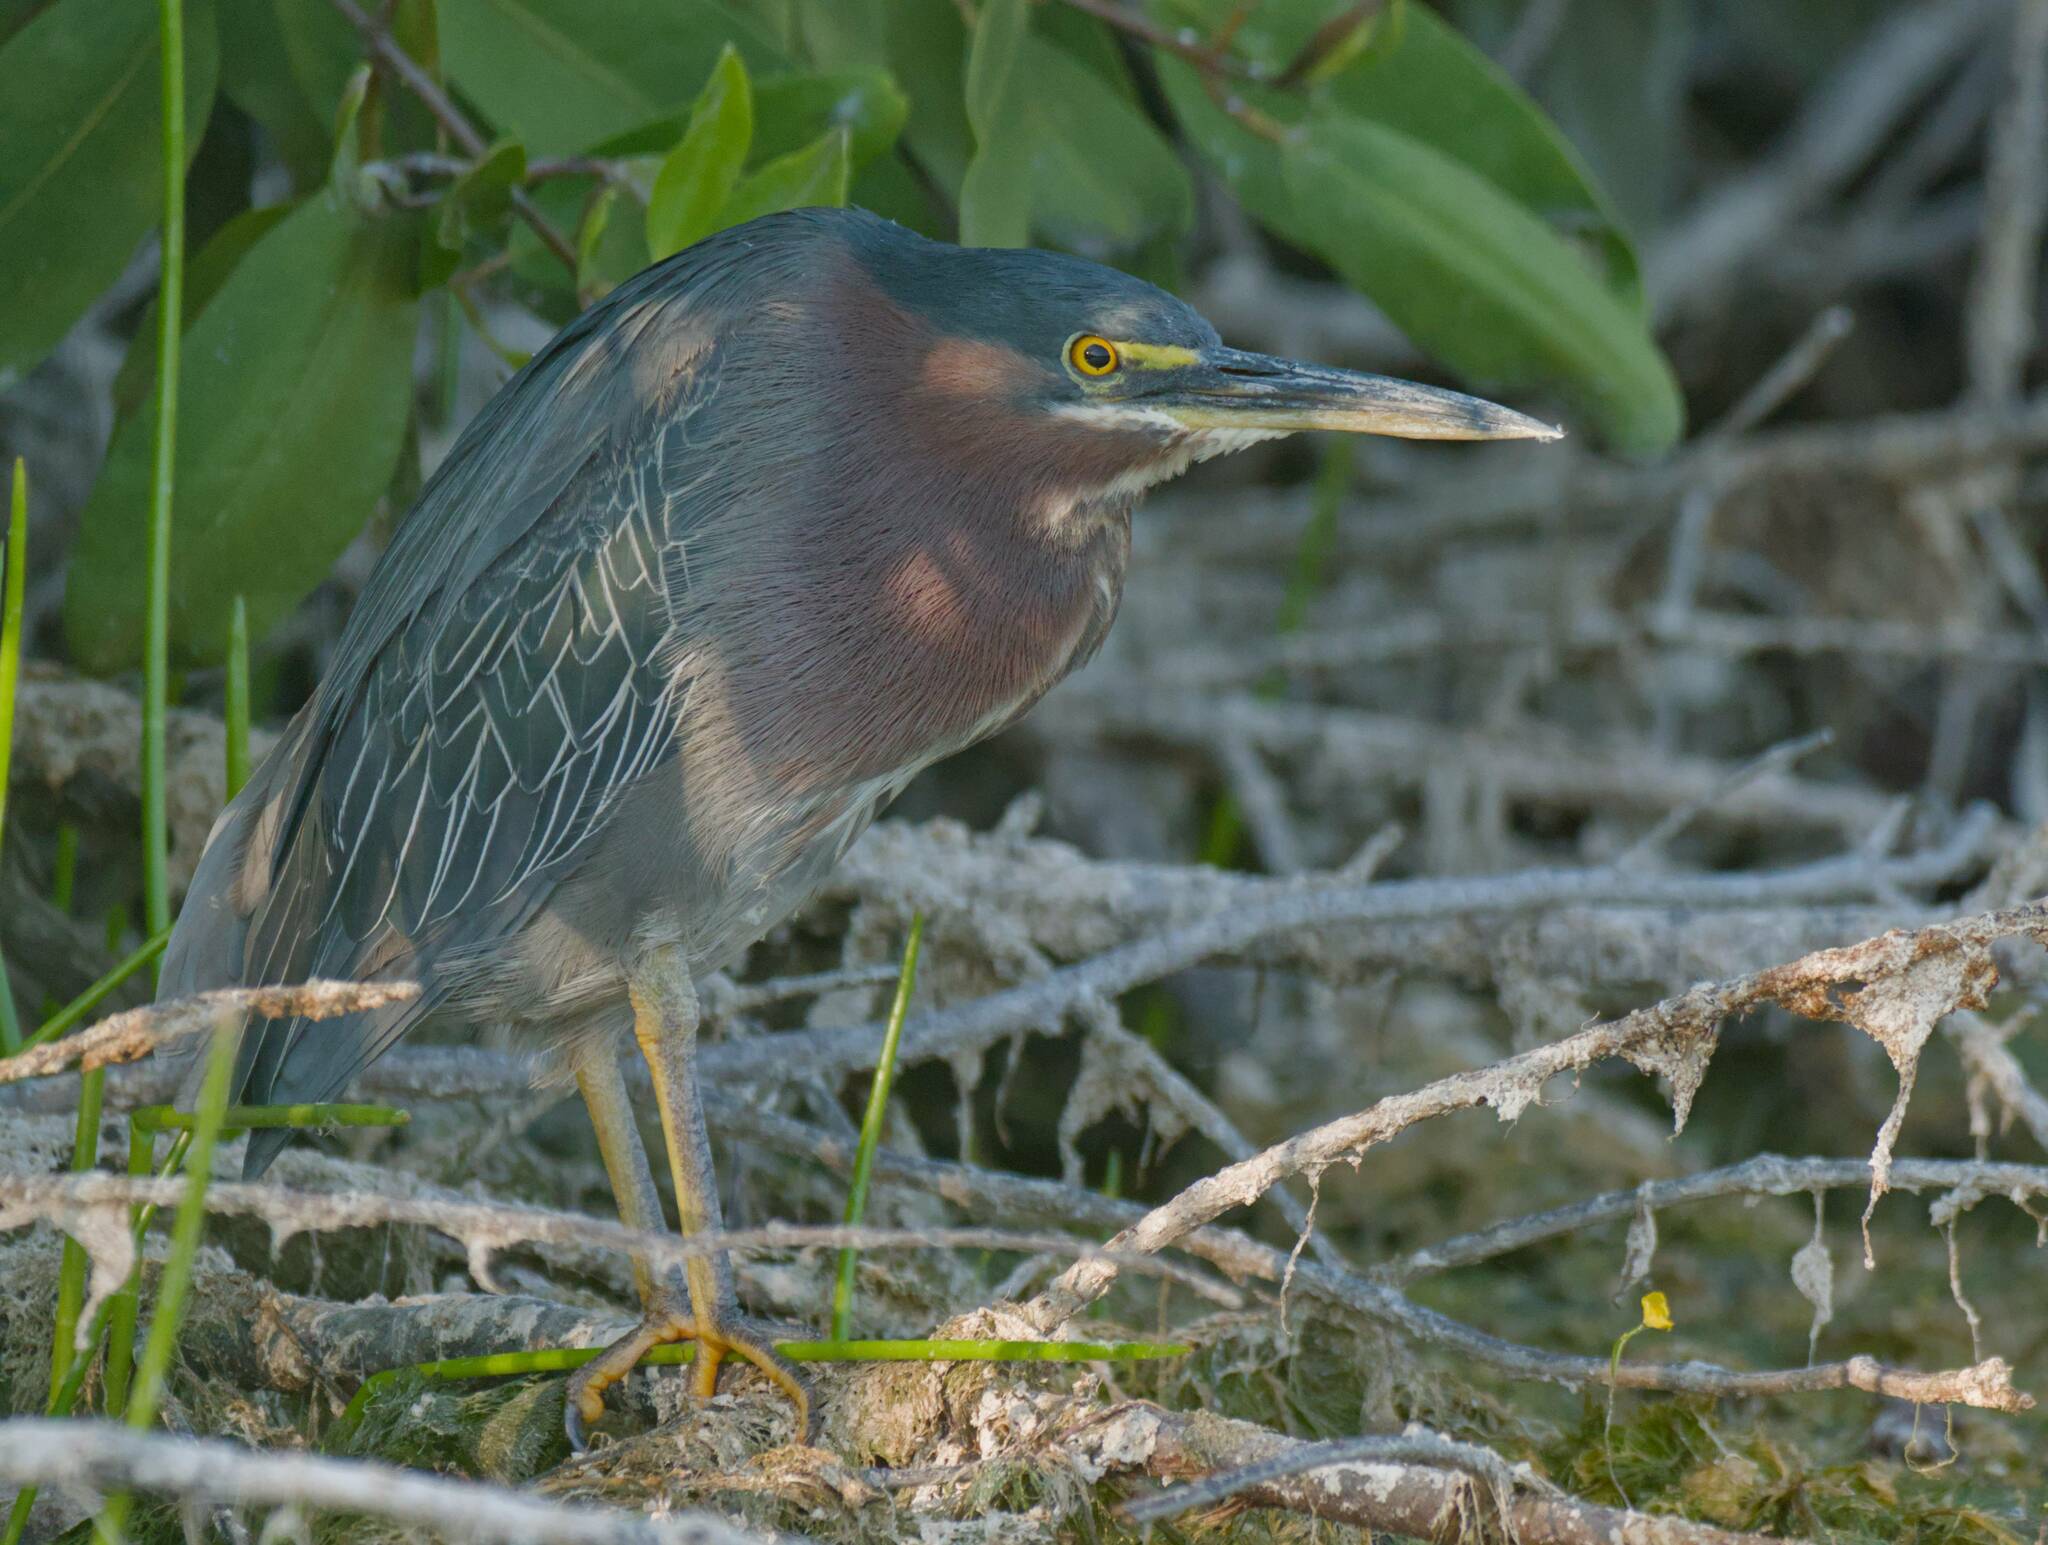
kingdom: Animalia
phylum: Chordata
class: Aves
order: Pelecaniformes
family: Ardeidae
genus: Butorides
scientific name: Butorides virescens
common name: Green heron
